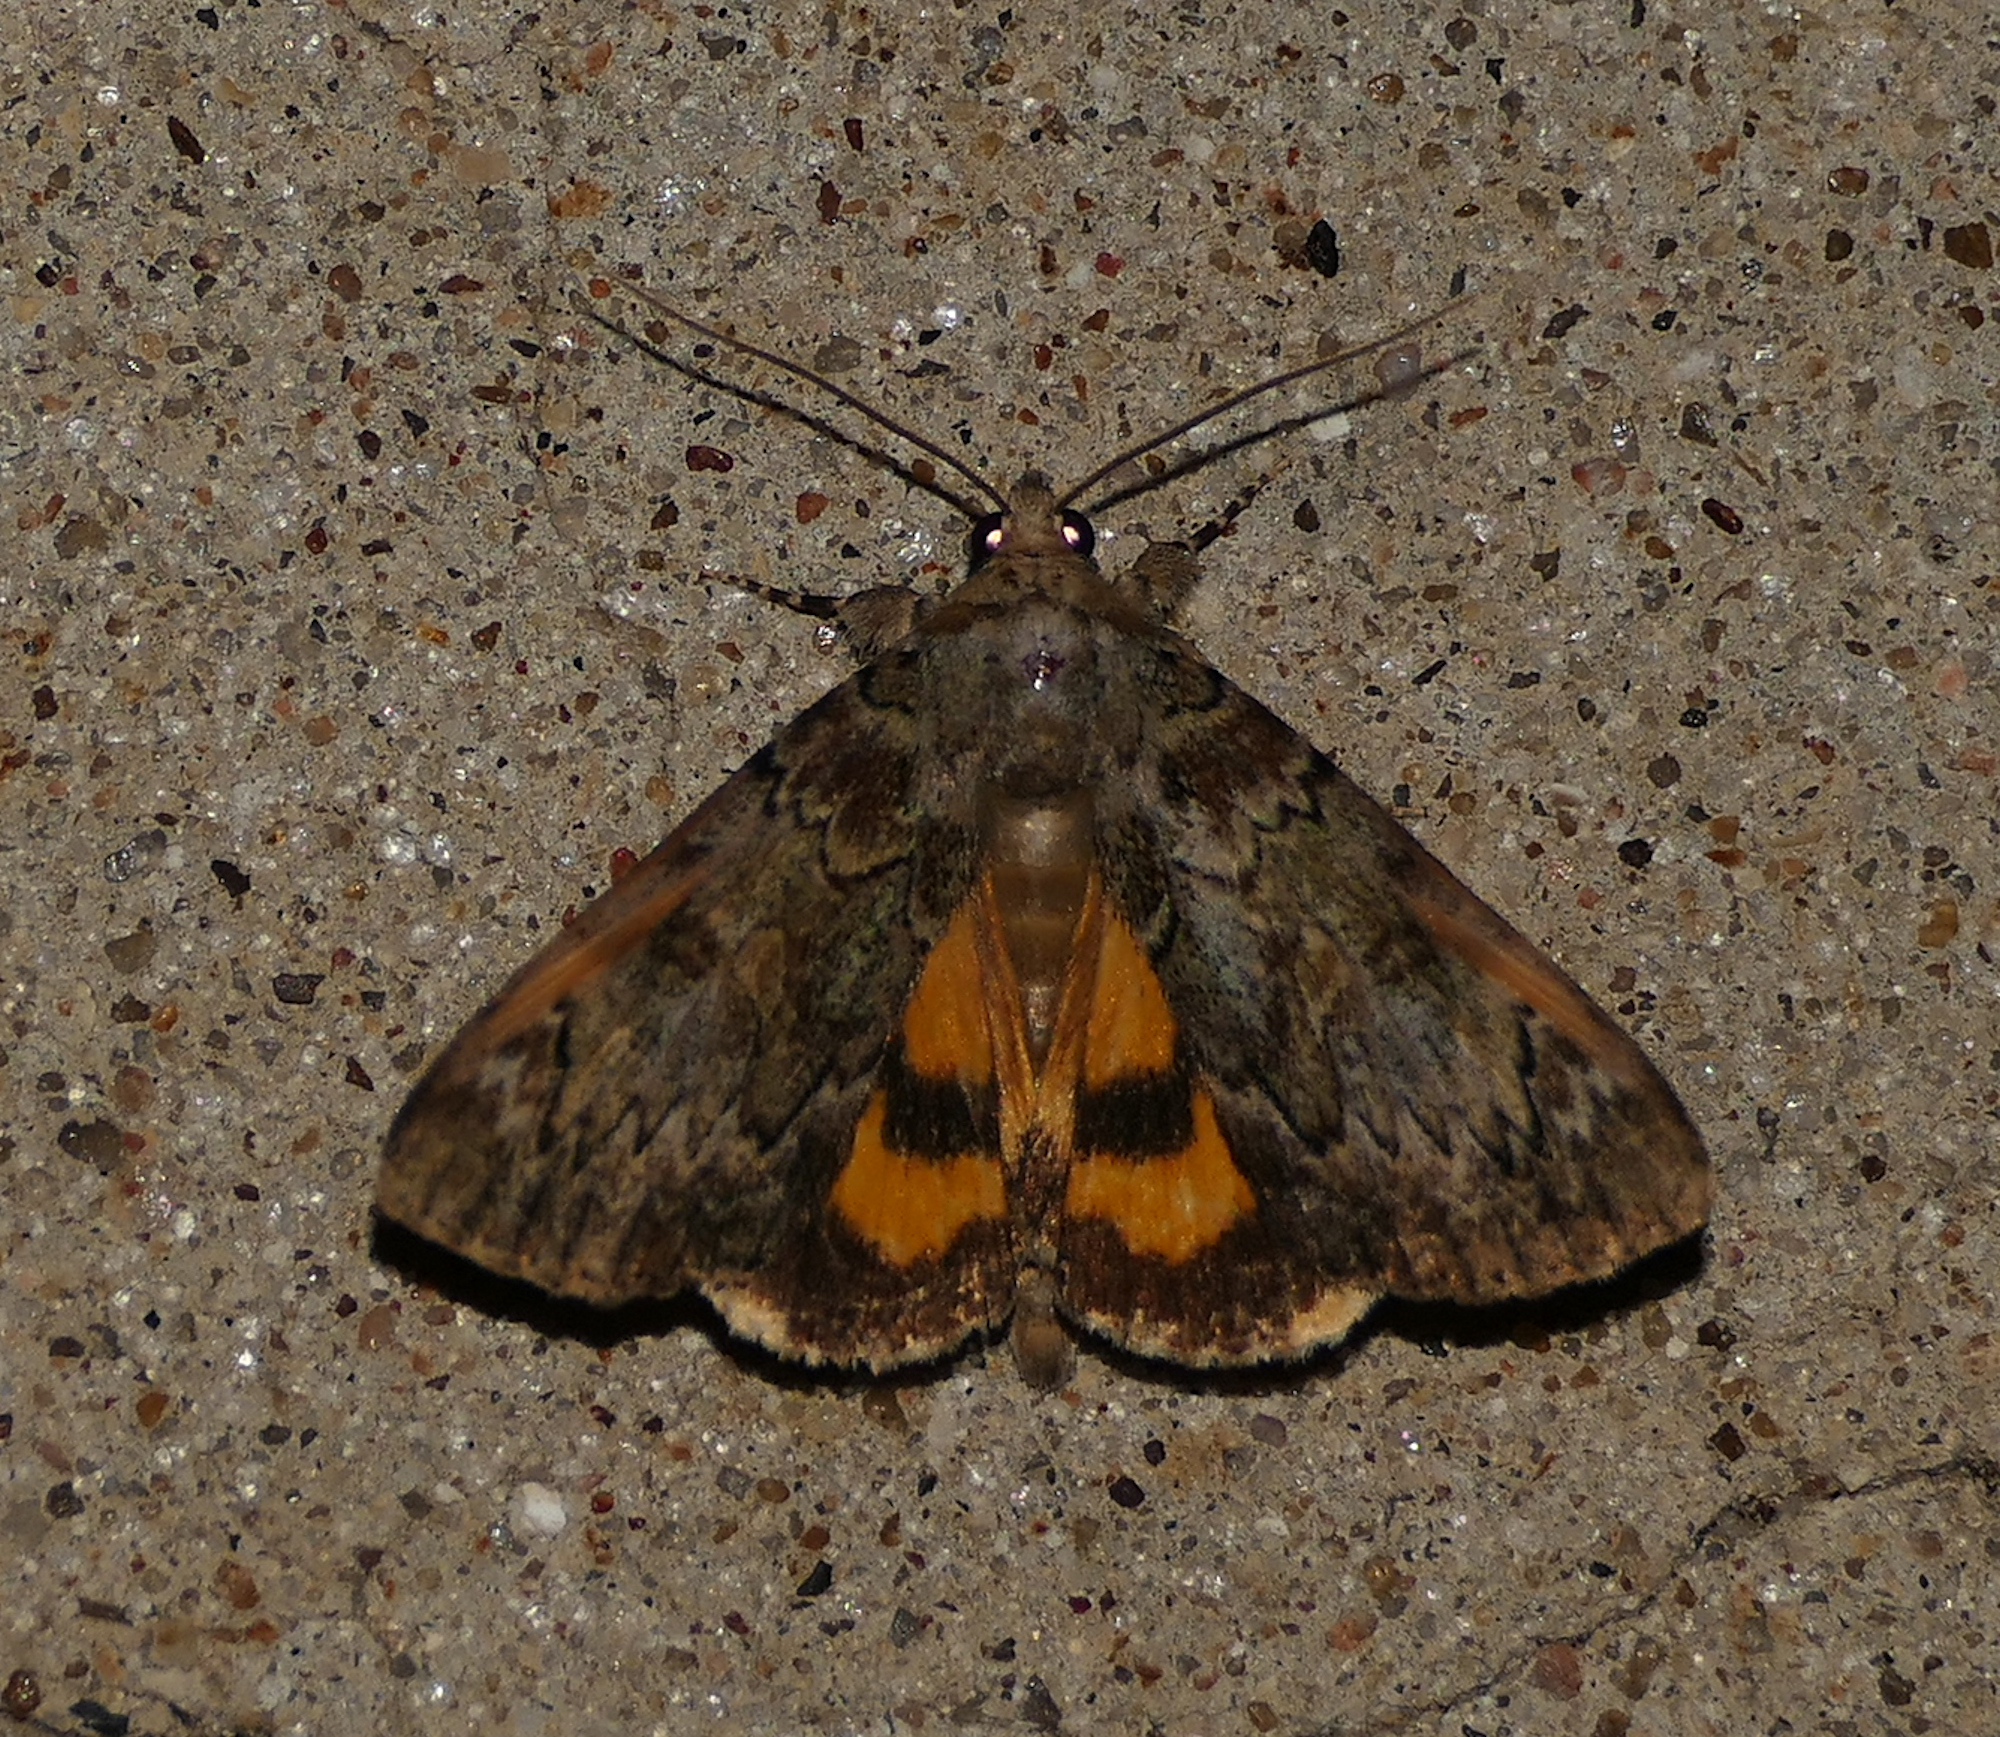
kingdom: Animalia
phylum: Arthropoda
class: Insecta
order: Lepidoptera
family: Erebidae
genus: Catocala
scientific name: Catocala minuta
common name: Little underwing
